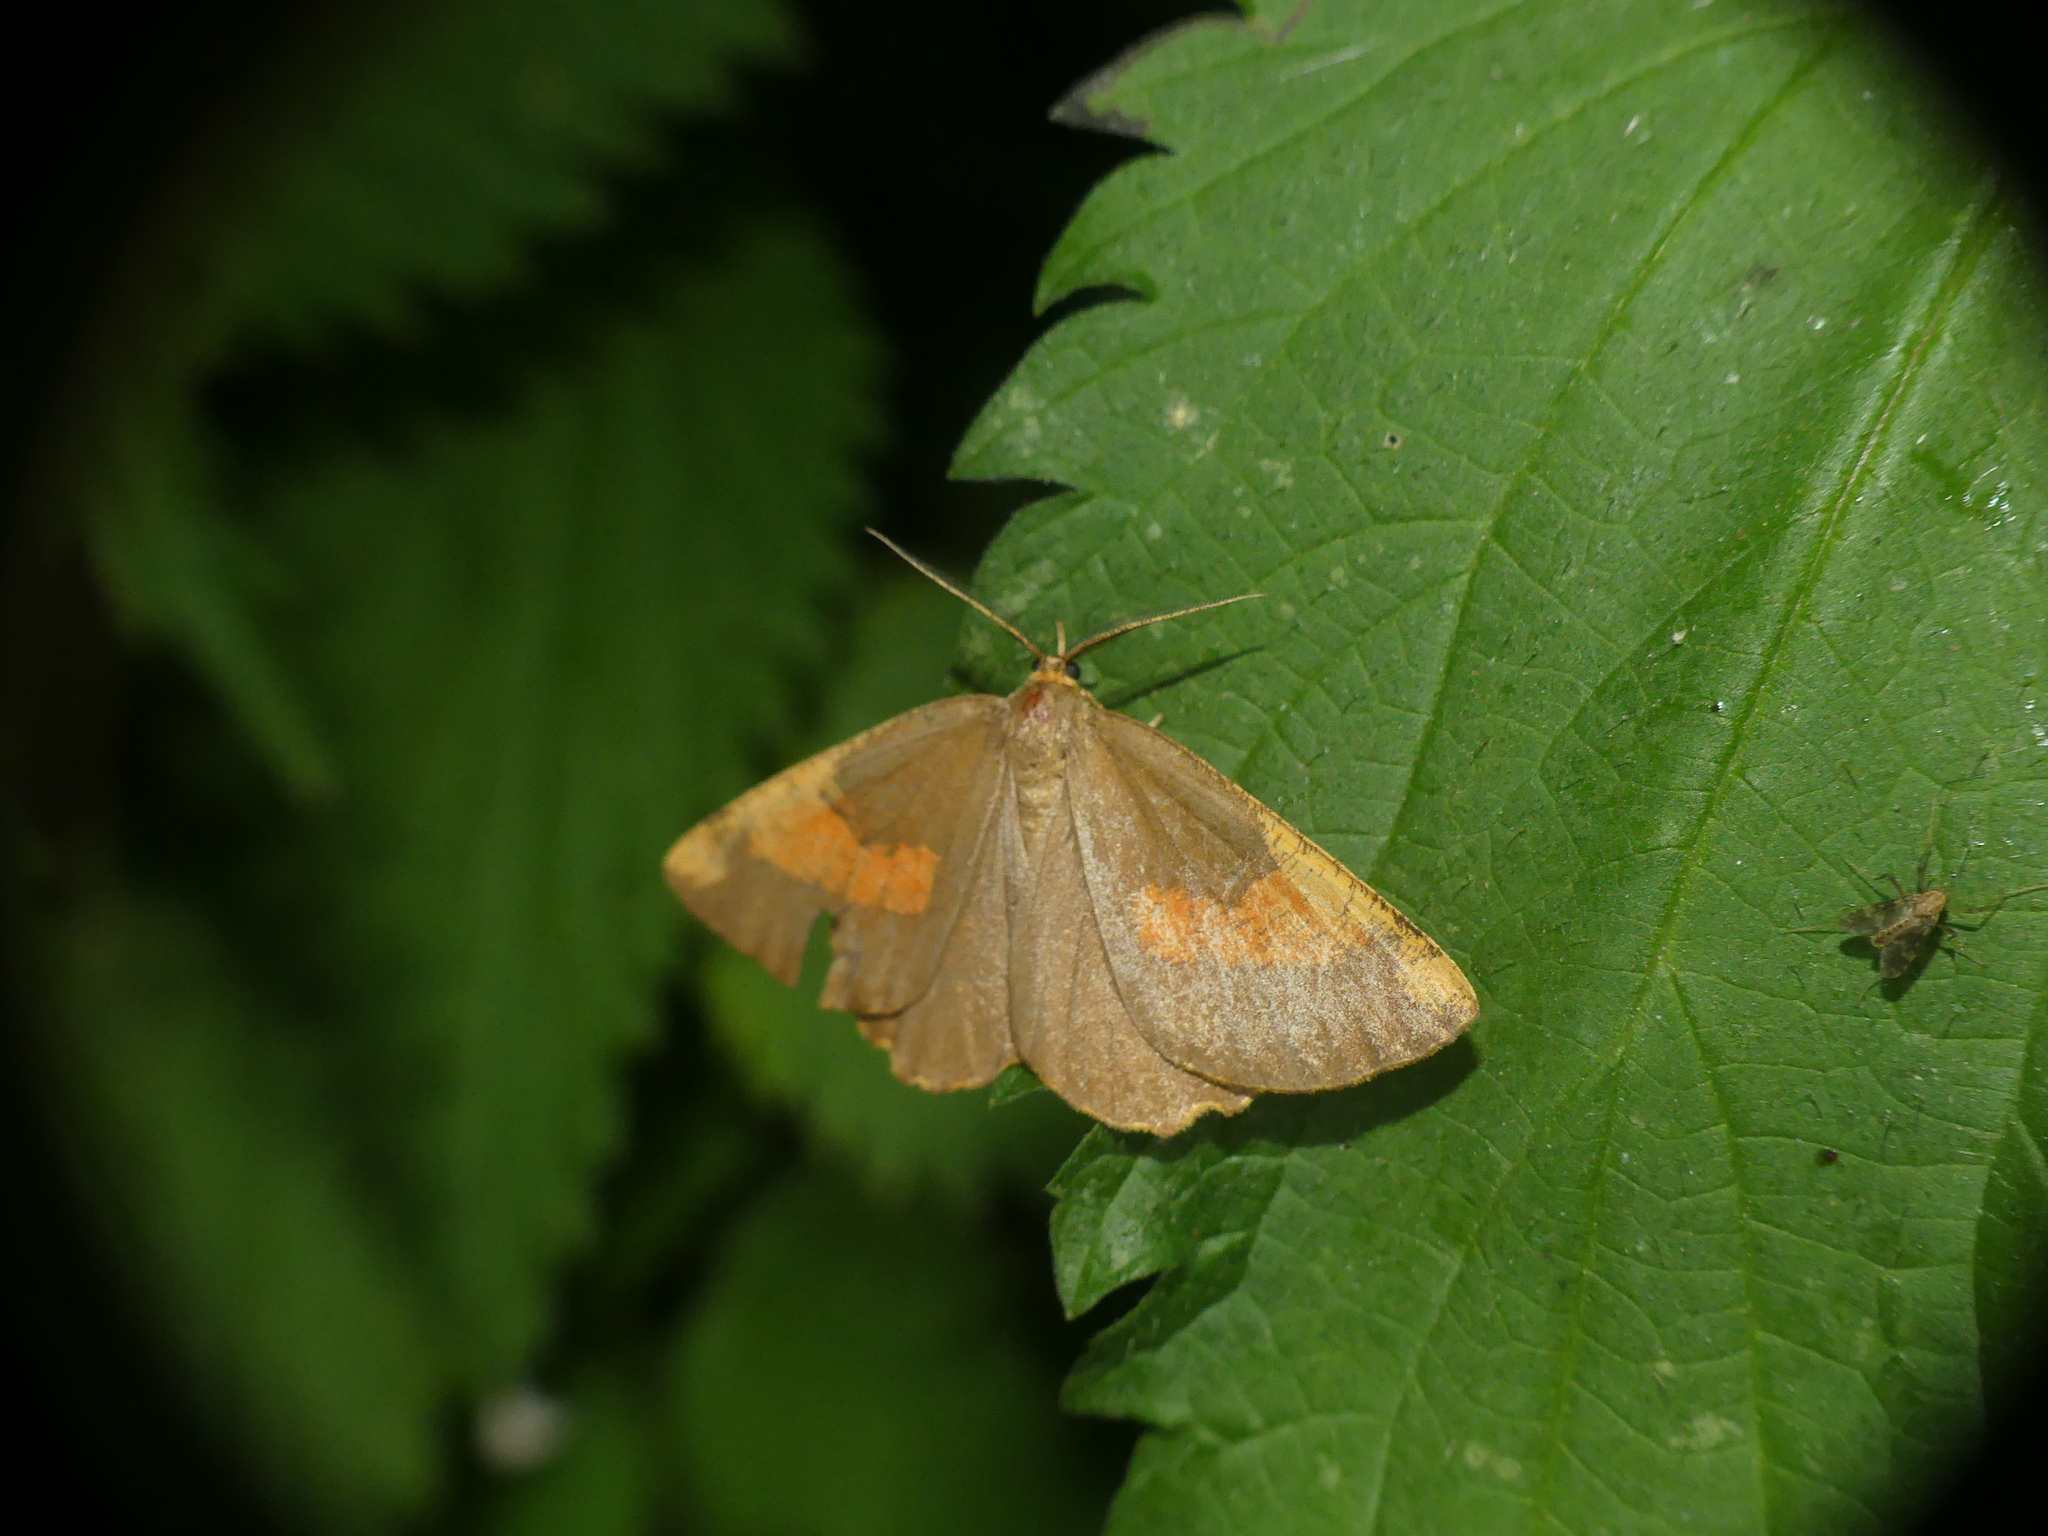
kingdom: Animalia
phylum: Arthropoda
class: Insecta
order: Lepidoptera
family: Geometridae
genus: Angerona
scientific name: Angerona prunaria
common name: Orange moth
